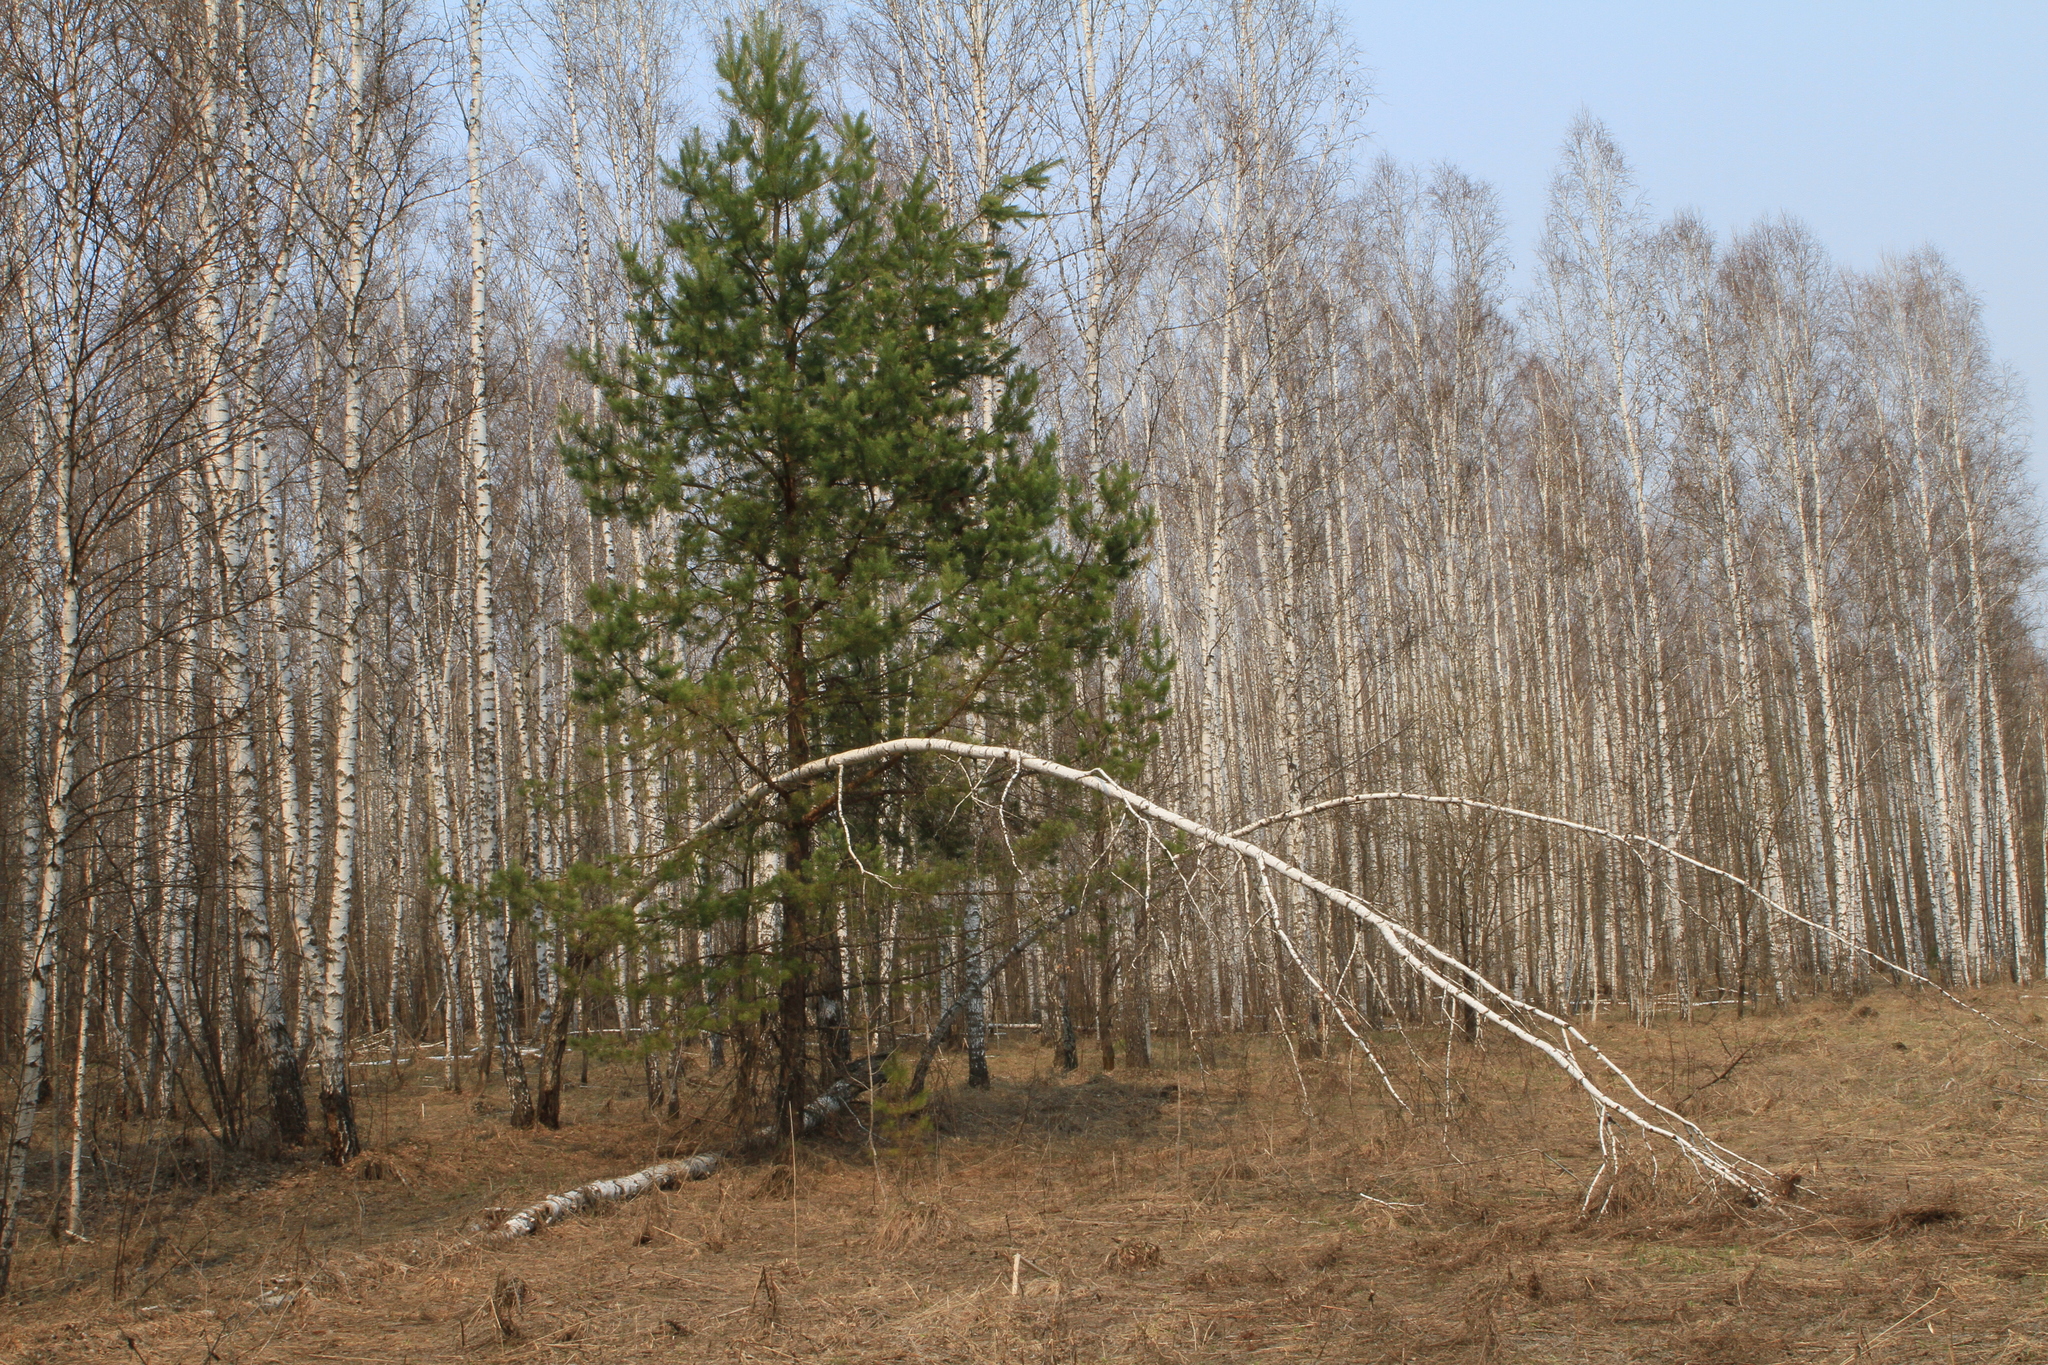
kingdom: Plantae
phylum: Tracheophyta
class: Pinopsida
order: Pinales
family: Pinaceae
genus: Pinus
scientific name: Pinus sylvestris
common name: Scots pine
